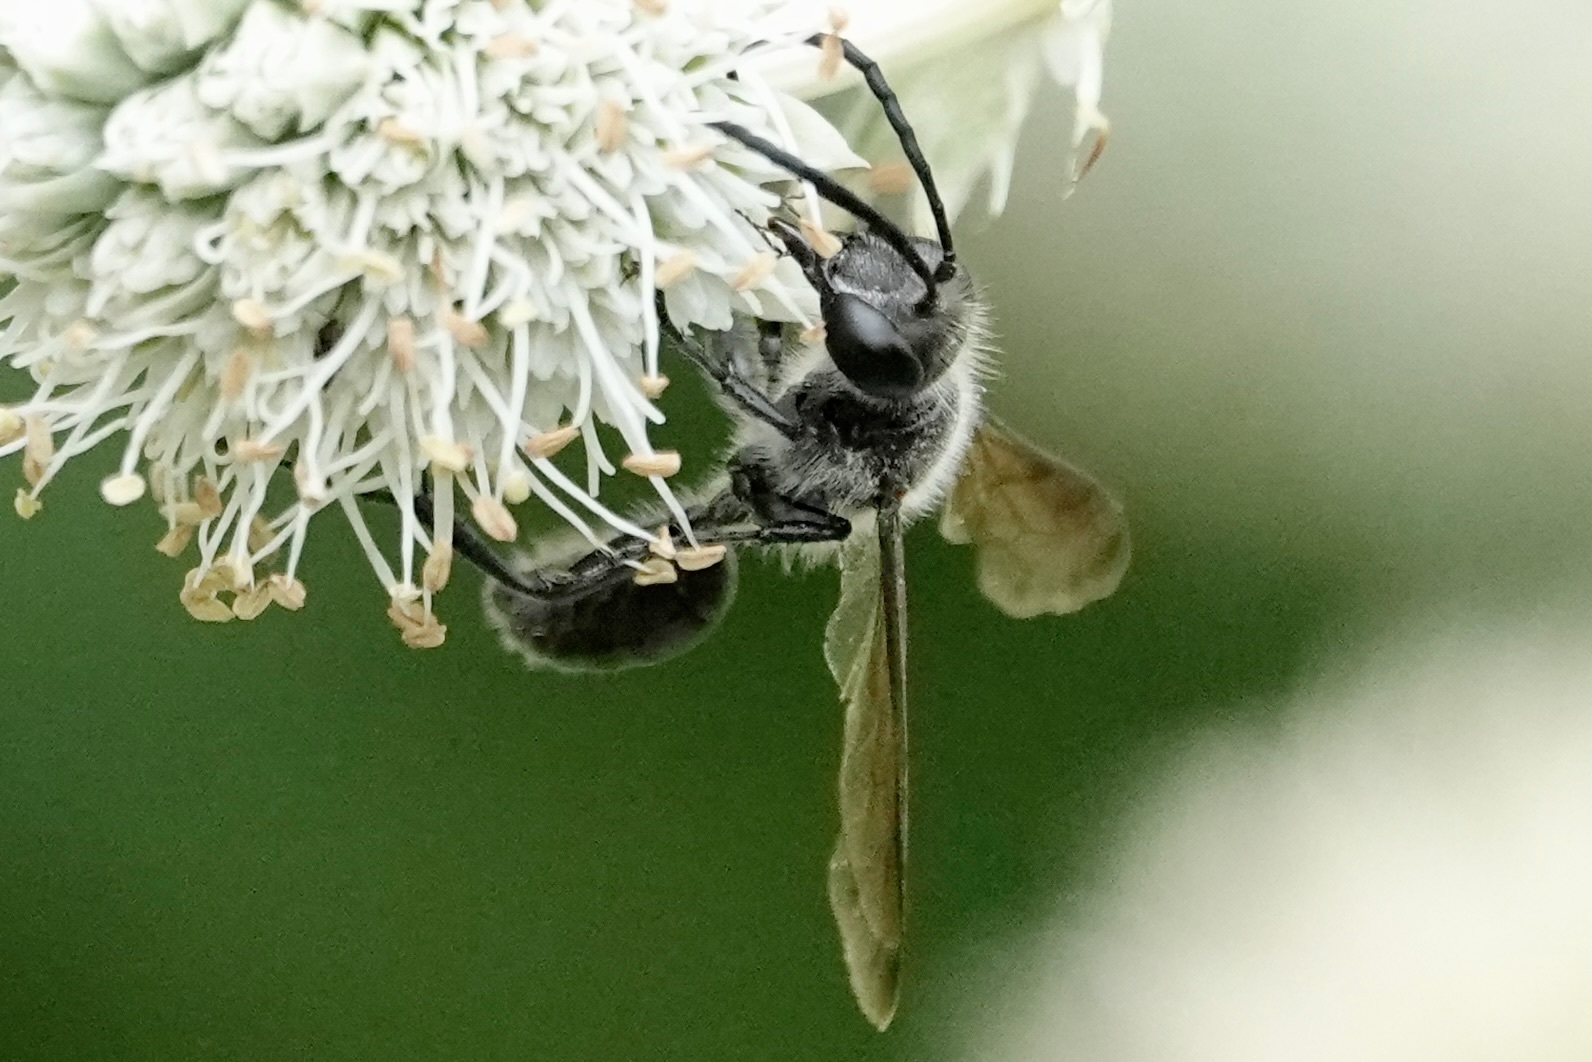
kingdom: Animalia
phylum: Arthropoda
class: Insecta
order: Hymenoptera
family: Sphecidae
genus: Isodontia
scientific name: Isodontia mexicana
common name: Mud dauber
